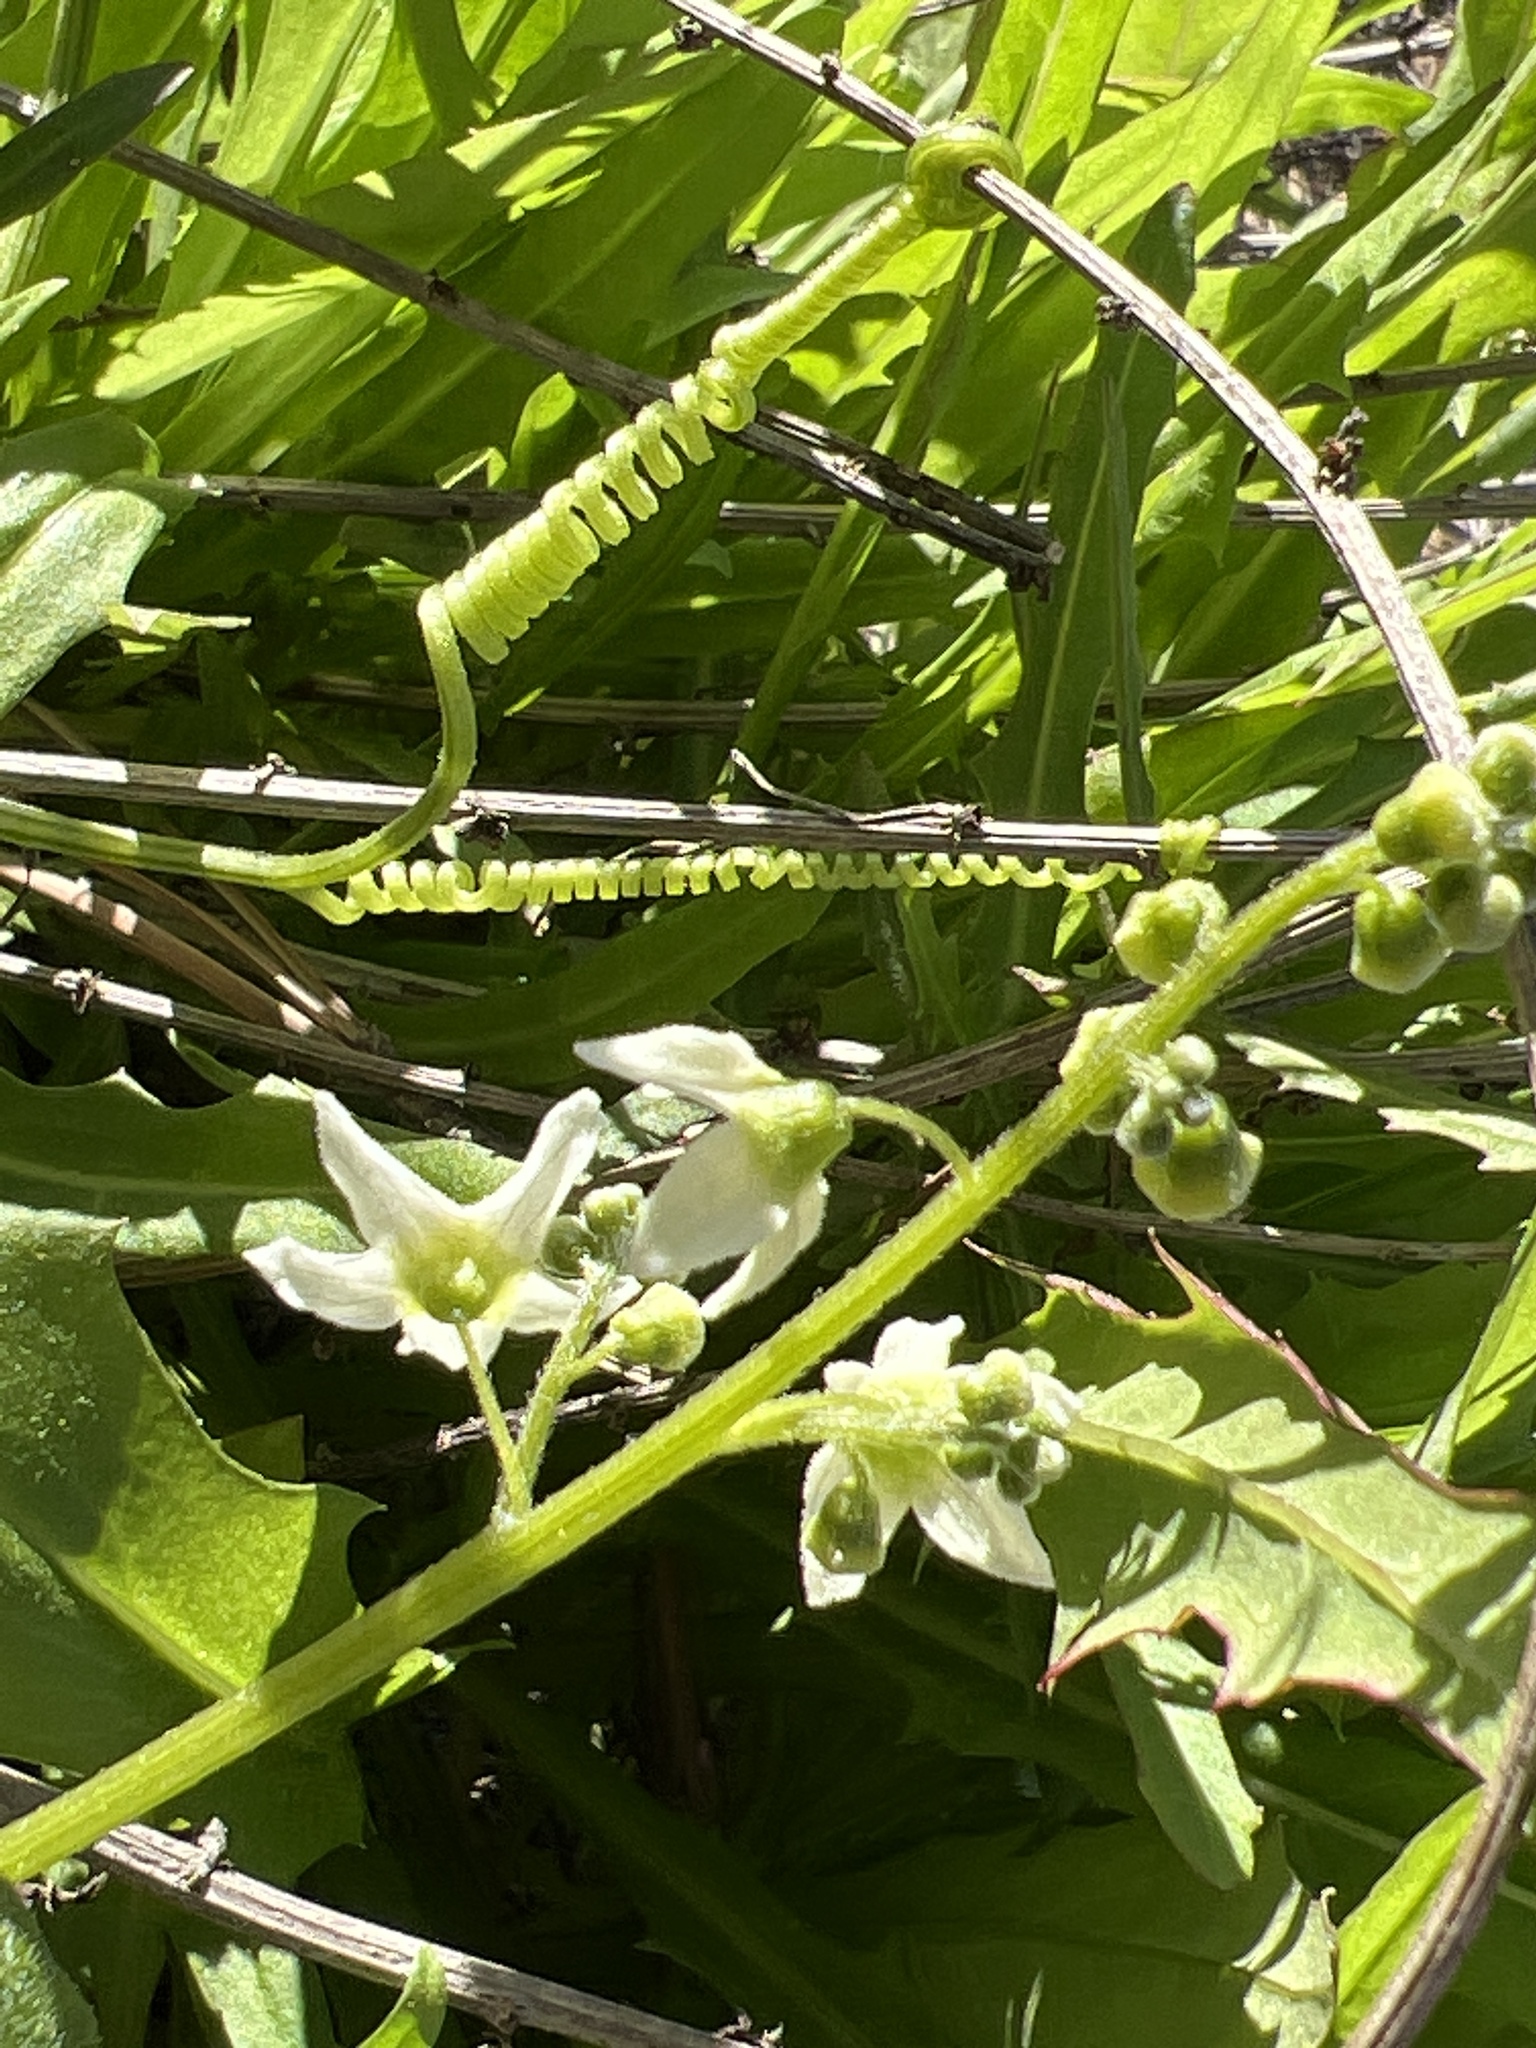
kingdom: Plantae
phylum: Tracheophyta
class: Magnoliopsida
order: Cucurbitales
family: Cucurbitaceae
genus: Marah
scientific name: Marah macrocarpa
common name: Cucamonga manroot
